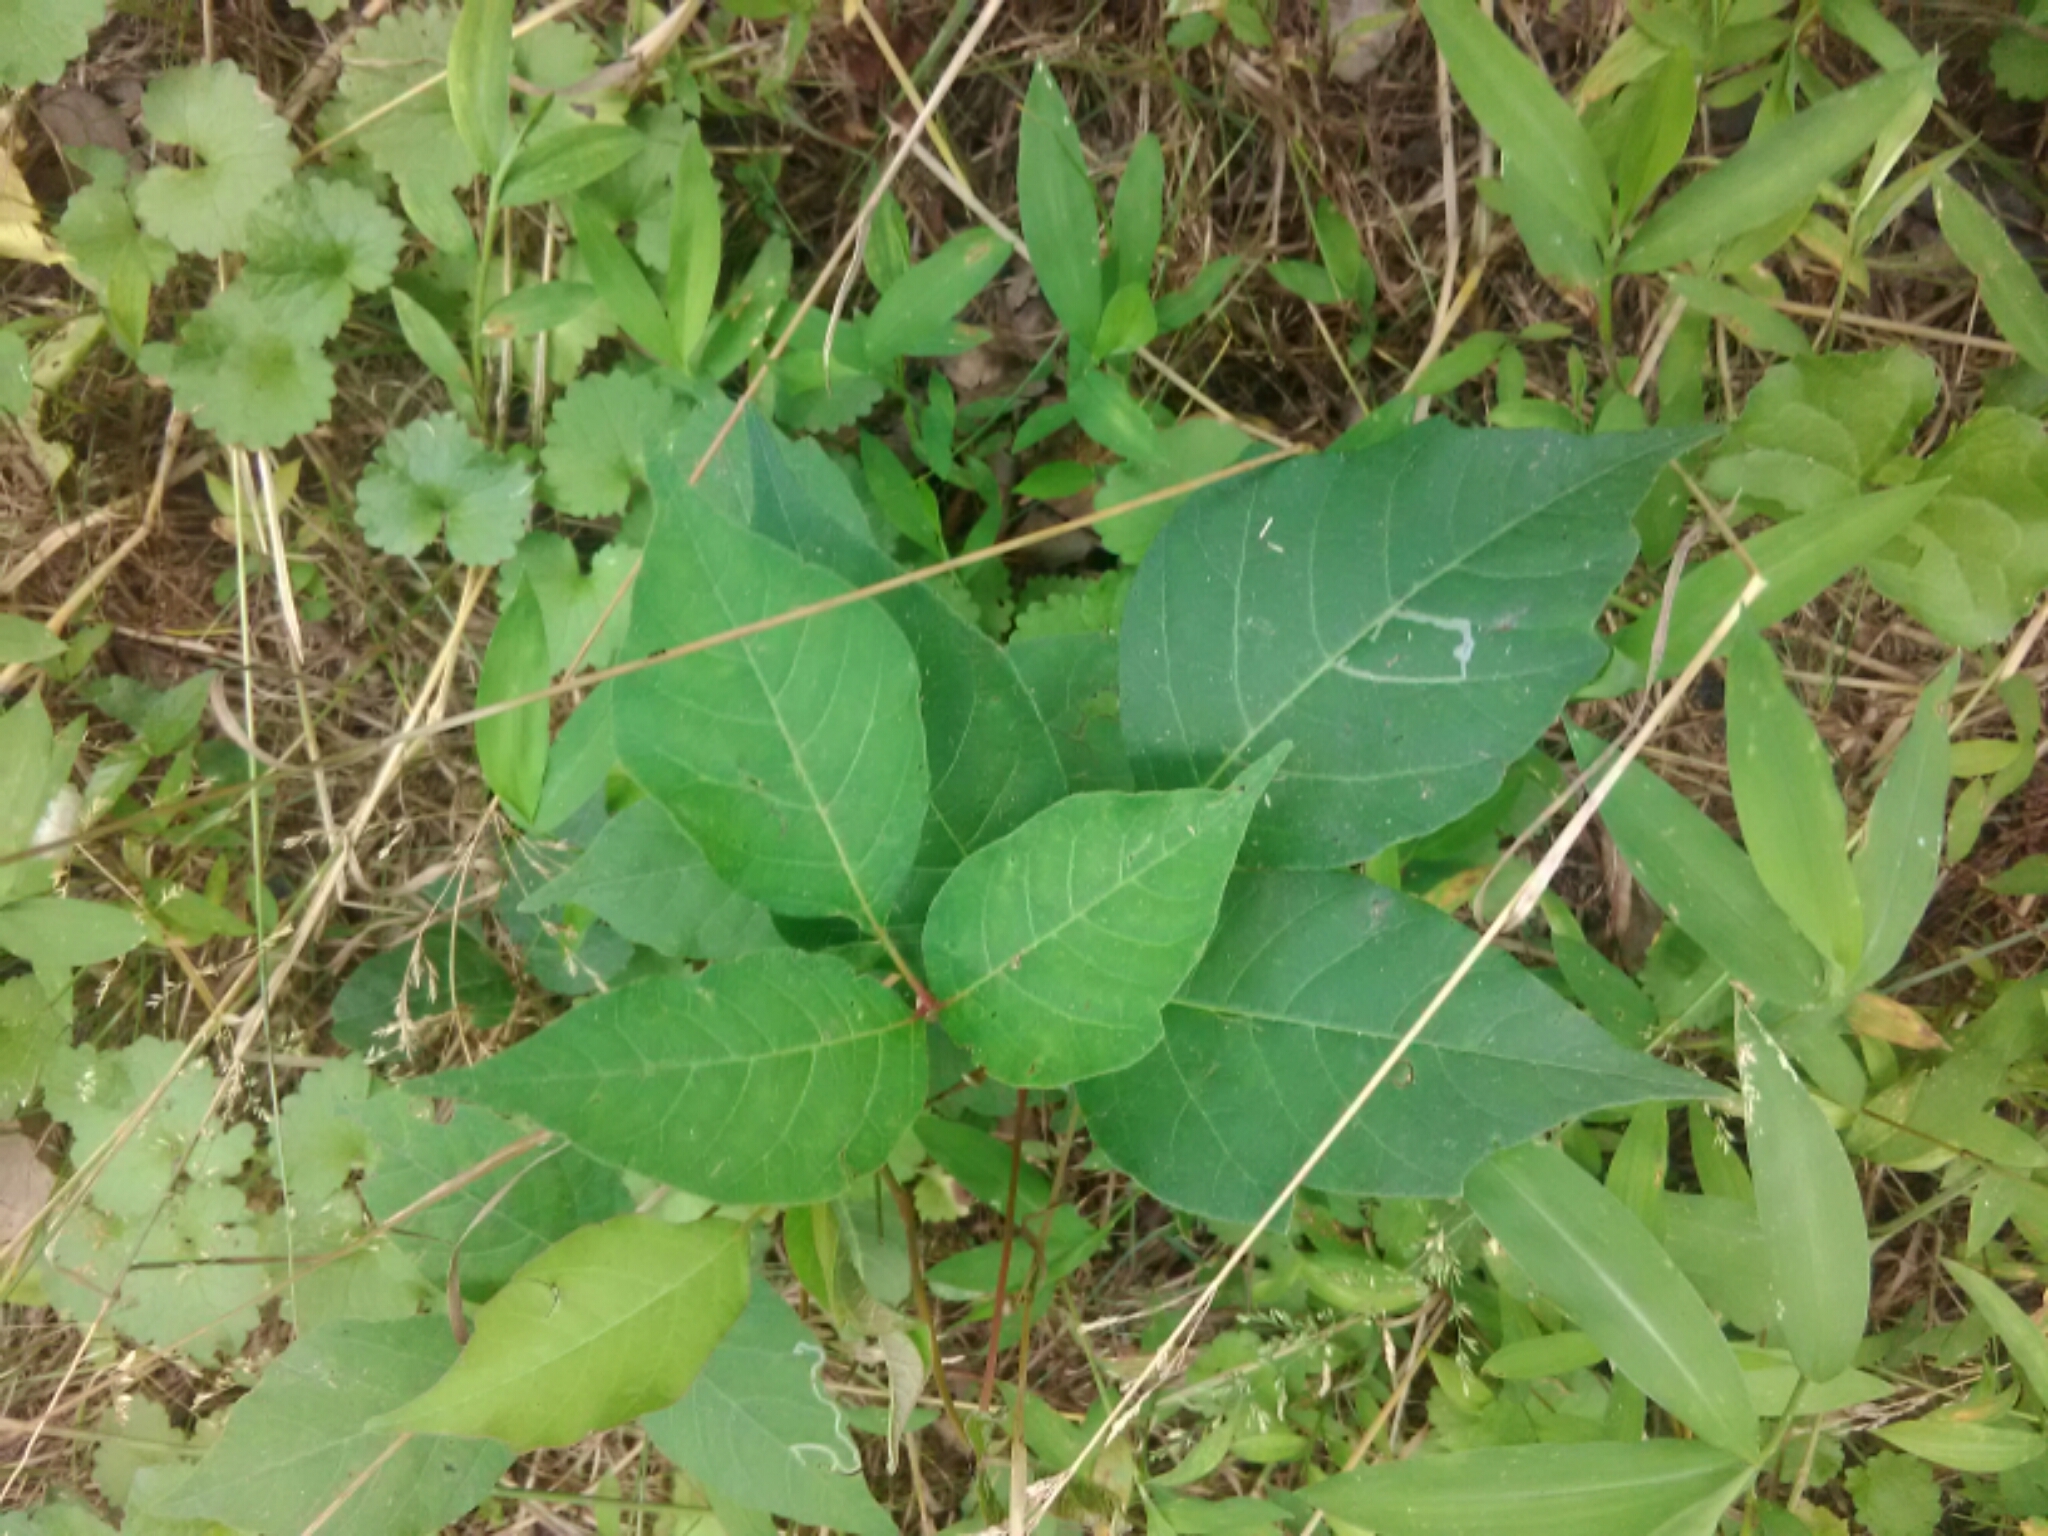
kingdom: Plantae
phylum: Tracheophyta
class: Magnoliopsida
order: Sapindales
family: Anacardiaceae
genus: Toxicodendron
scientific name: Toxicodendron radicans
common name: Poison ivy
